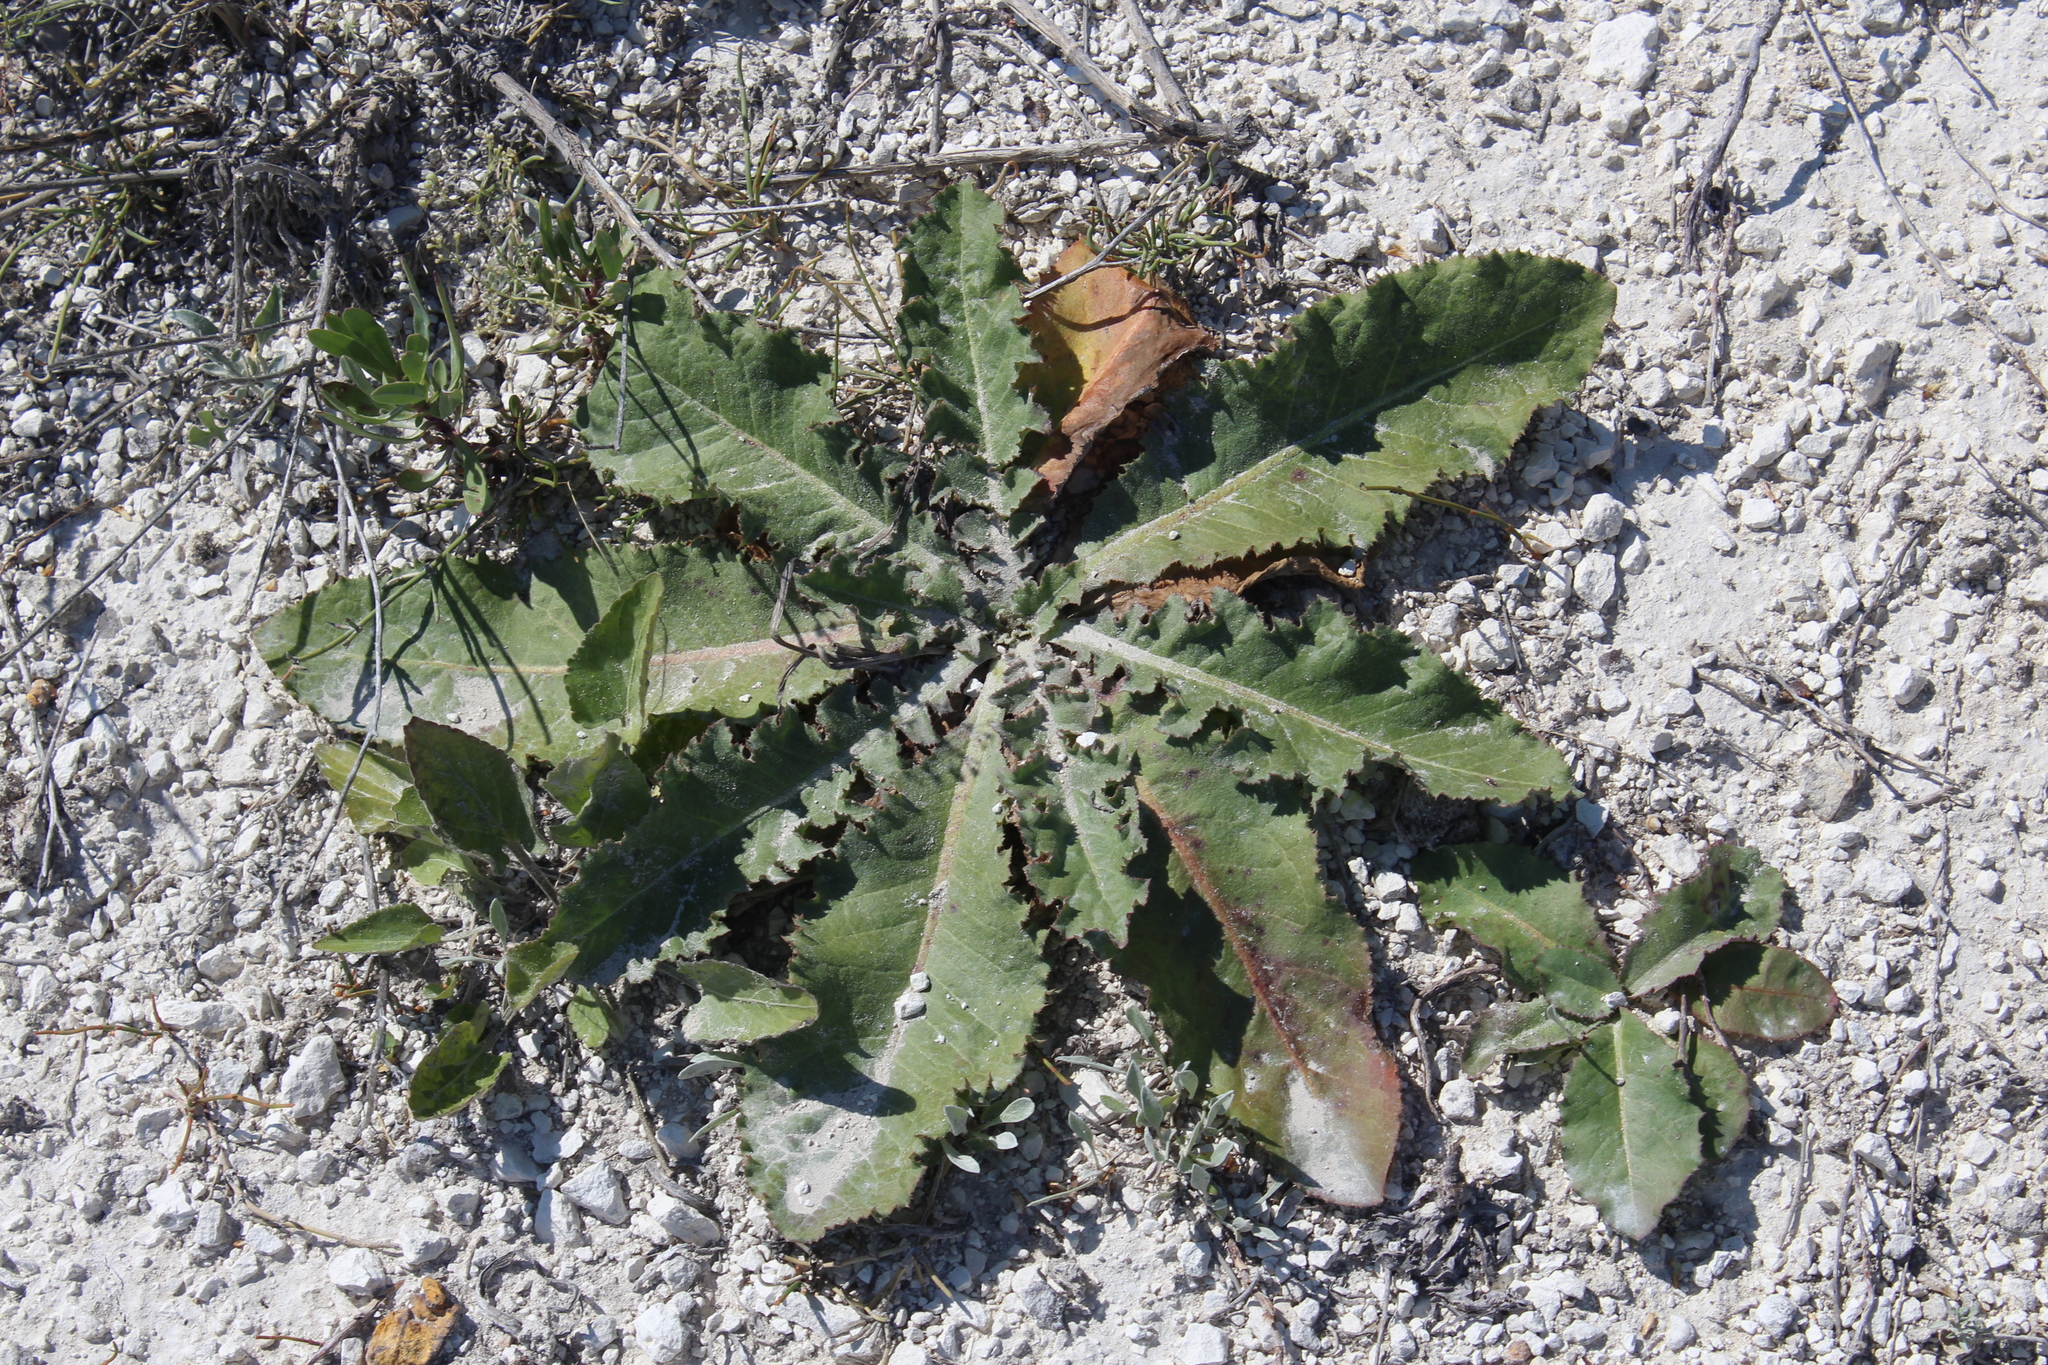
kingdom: Plantae
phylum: Tracheophyta
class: Magnoliopsida
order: Asterales
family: Asteraceae
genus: Taraxacum
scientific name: Taraxacum serotinum
